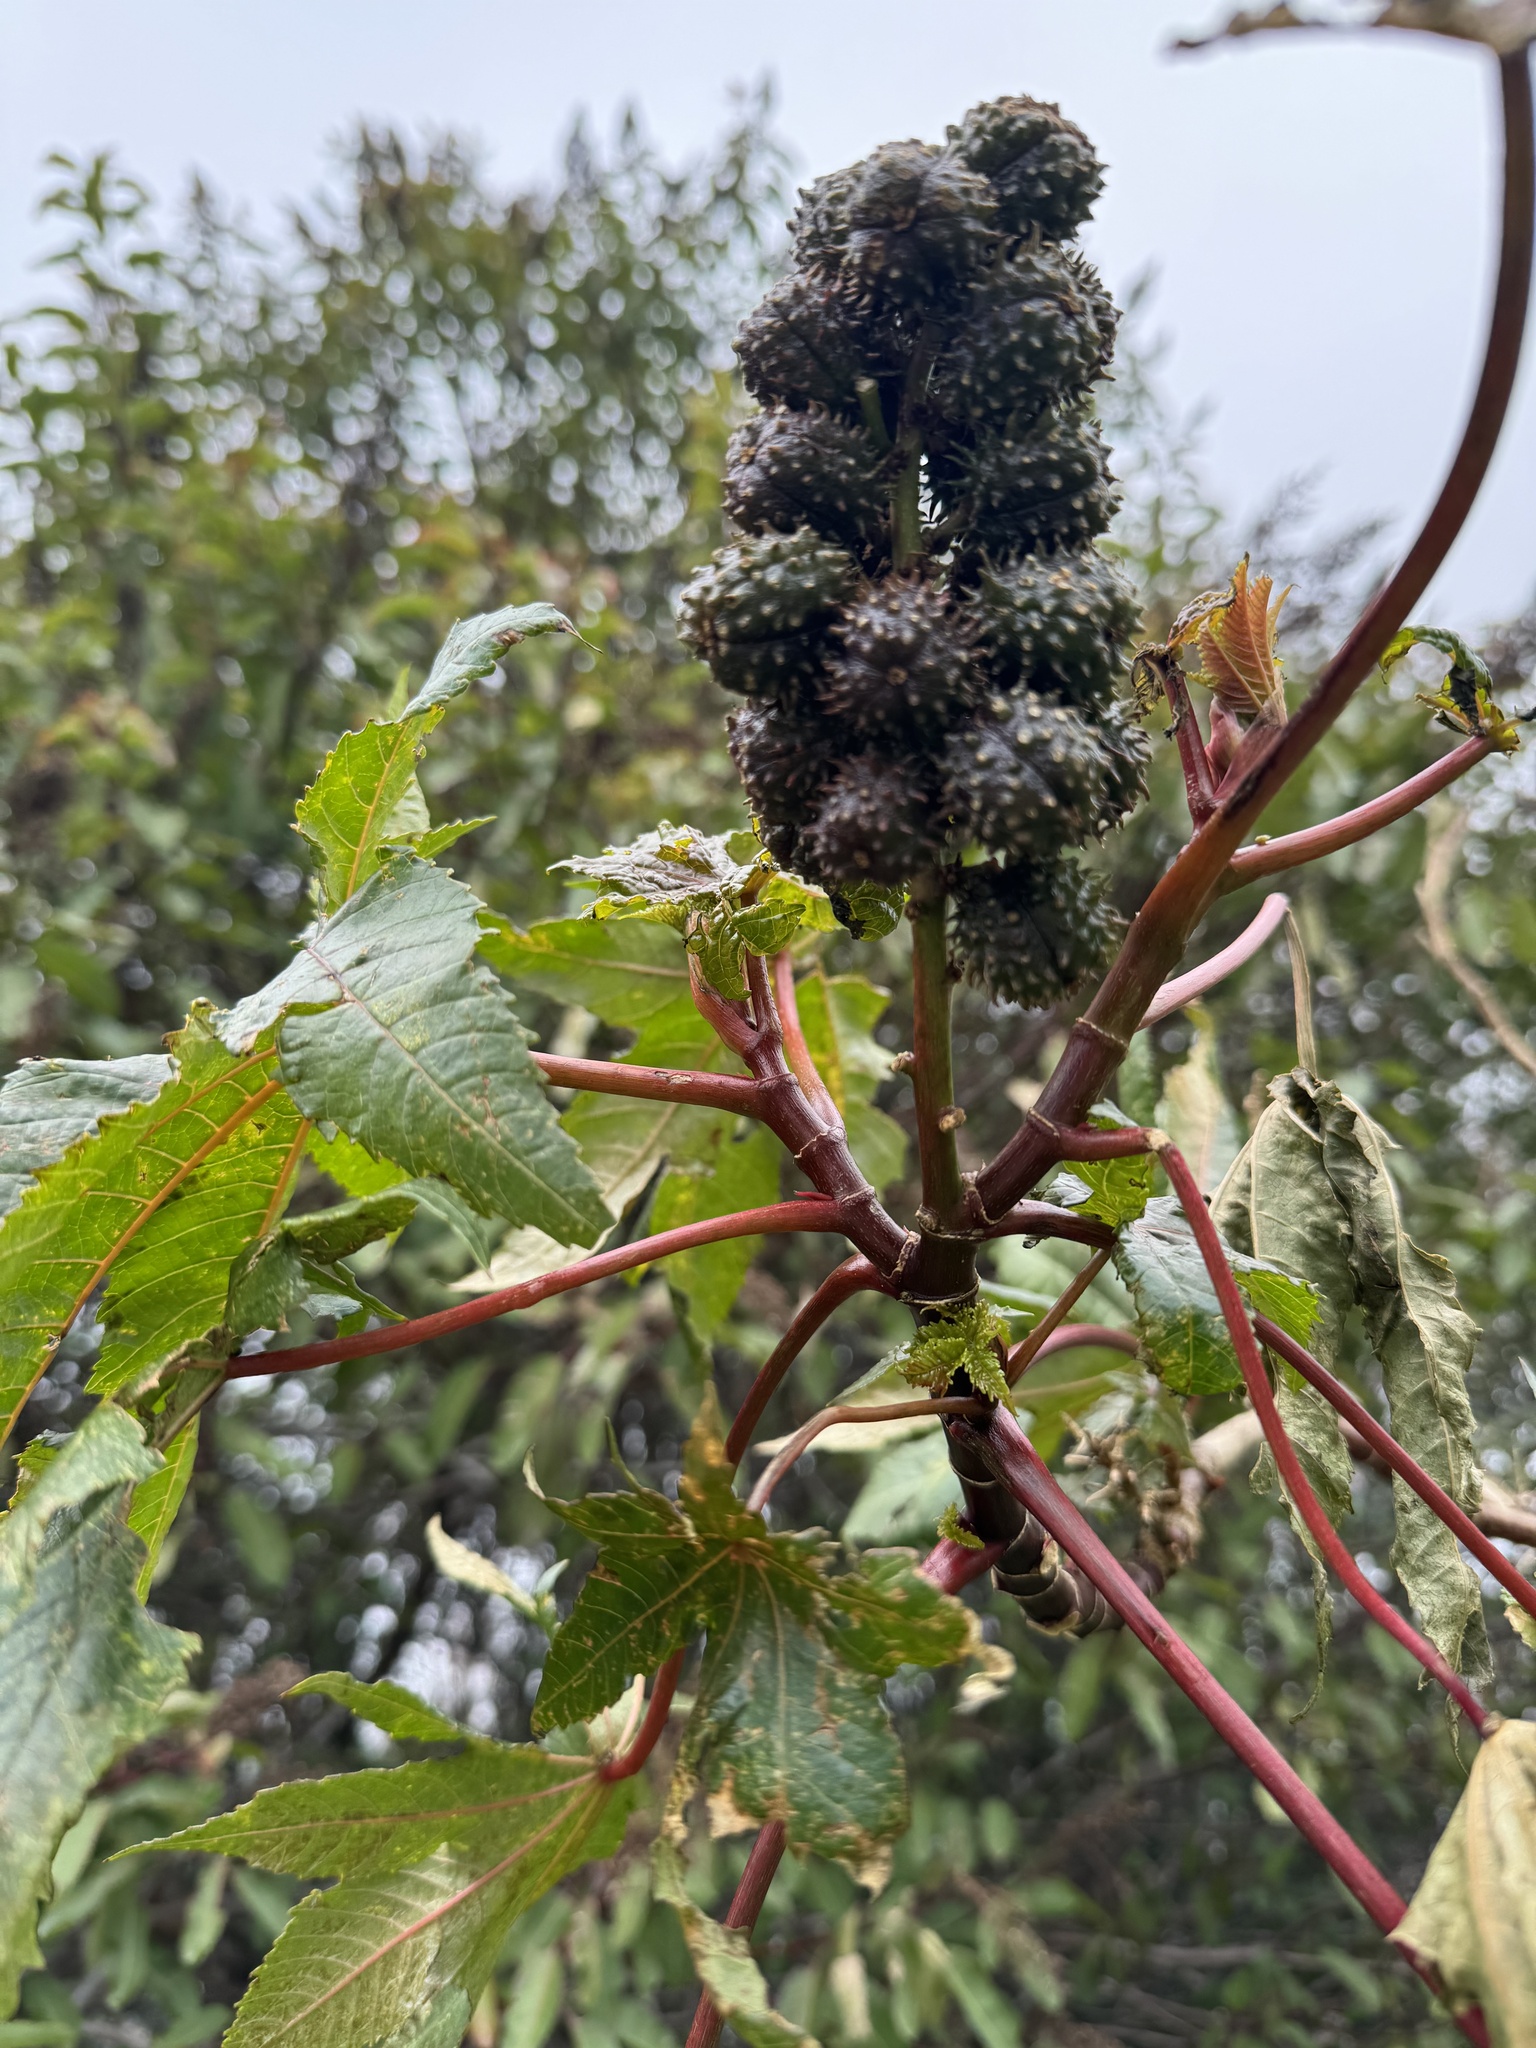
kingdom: Plantae
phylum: Tracheophyta
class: Magnoliopsida
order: Malpighiales
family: Euphorbiaceae
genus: Ricinus
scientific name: Ricinus communis
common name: Castor-oil-plant
